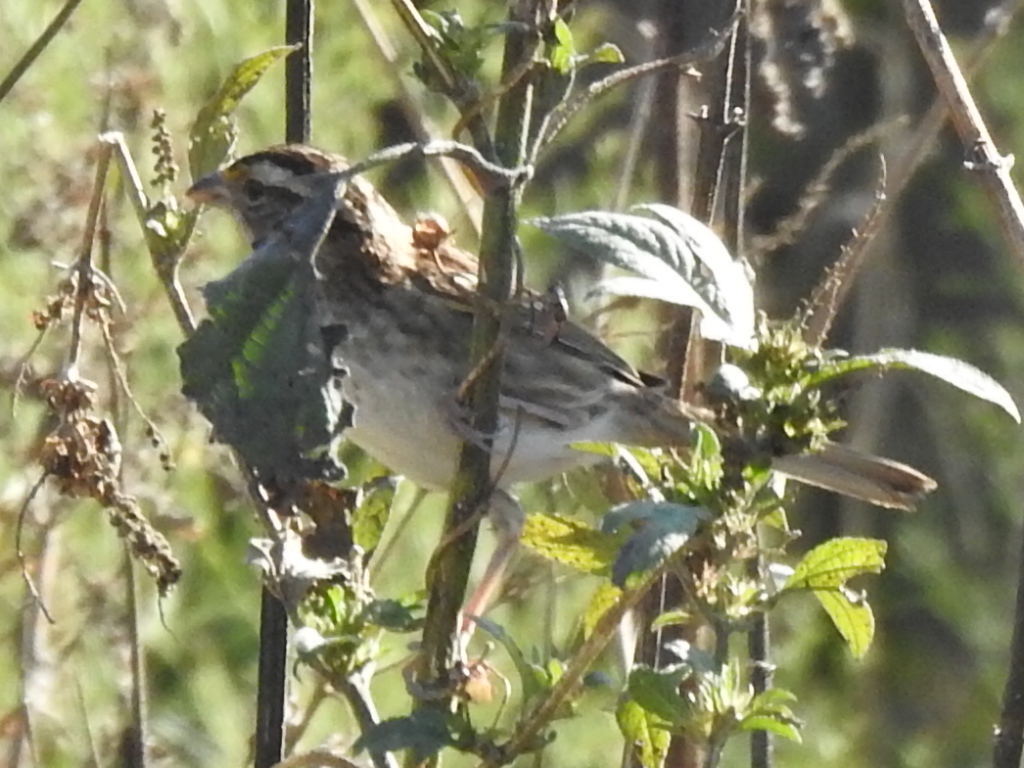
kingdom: Animalia
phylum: Chordata
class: Aves
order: Passeriformes
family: Passerellidae
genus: Zonotrichia
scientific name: Zonotrichia albicollis
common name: White-throated sparrow
